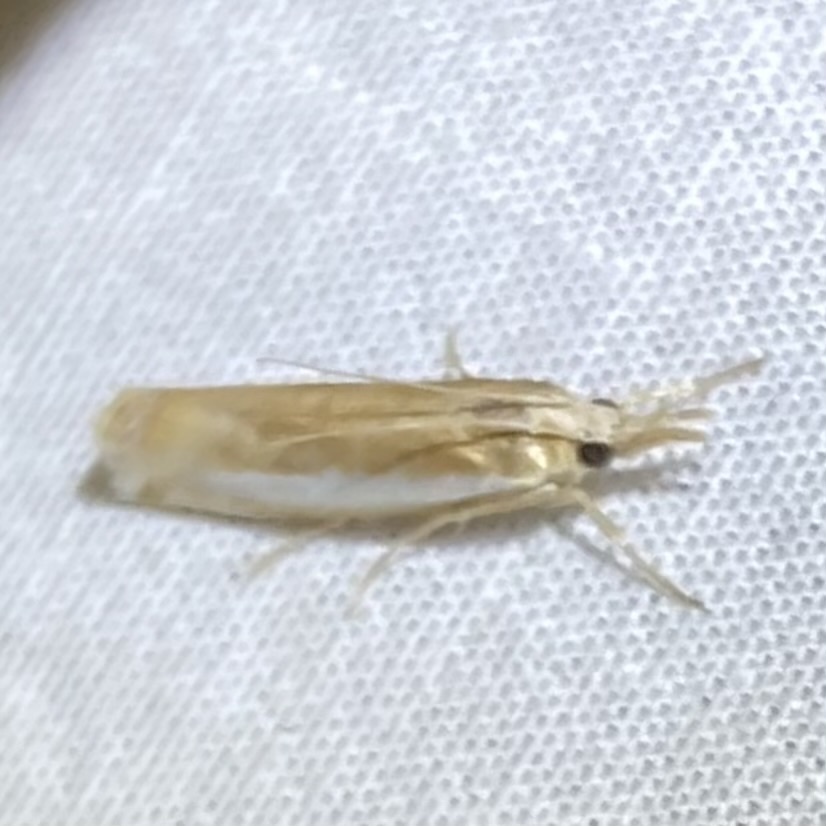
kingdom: Animalia
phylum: Arthropoda
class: Insecta
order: Lepidoptera
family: Crambidae
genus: Crambus
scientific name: Crambus praefectellus
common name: Common grass-veneer
